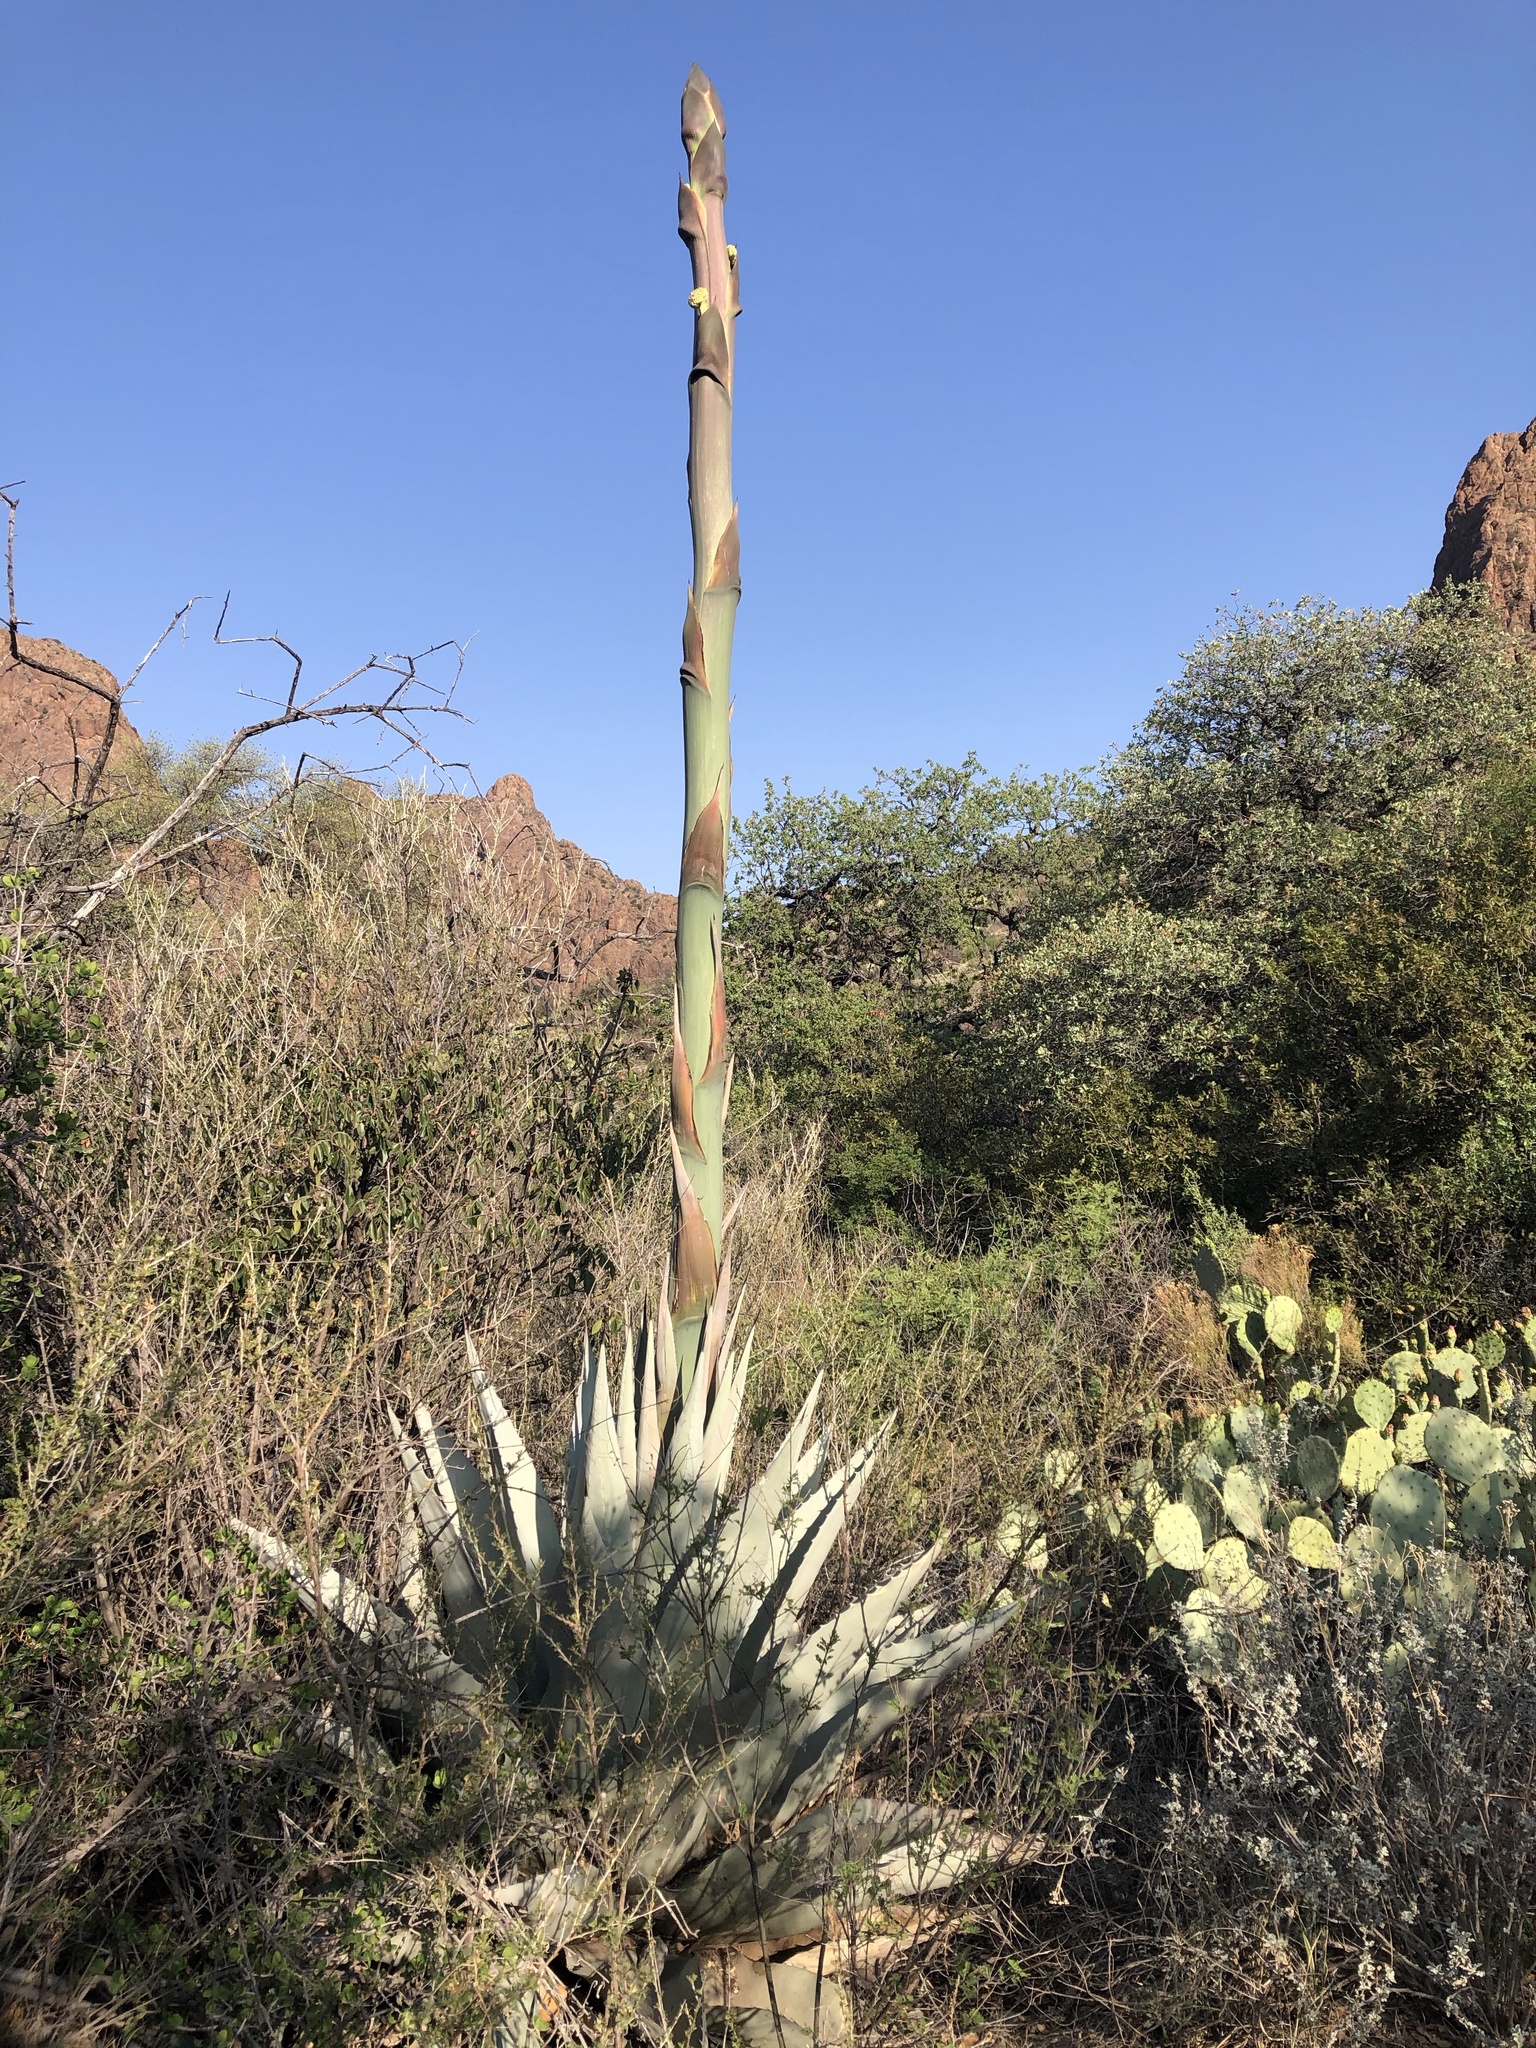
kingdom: Plantae
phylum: Tracheophyta
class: Liliopsida
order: Asparagales
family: Asparagaceae
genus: Agave
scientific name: Agave havardiana
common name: Havard agave
